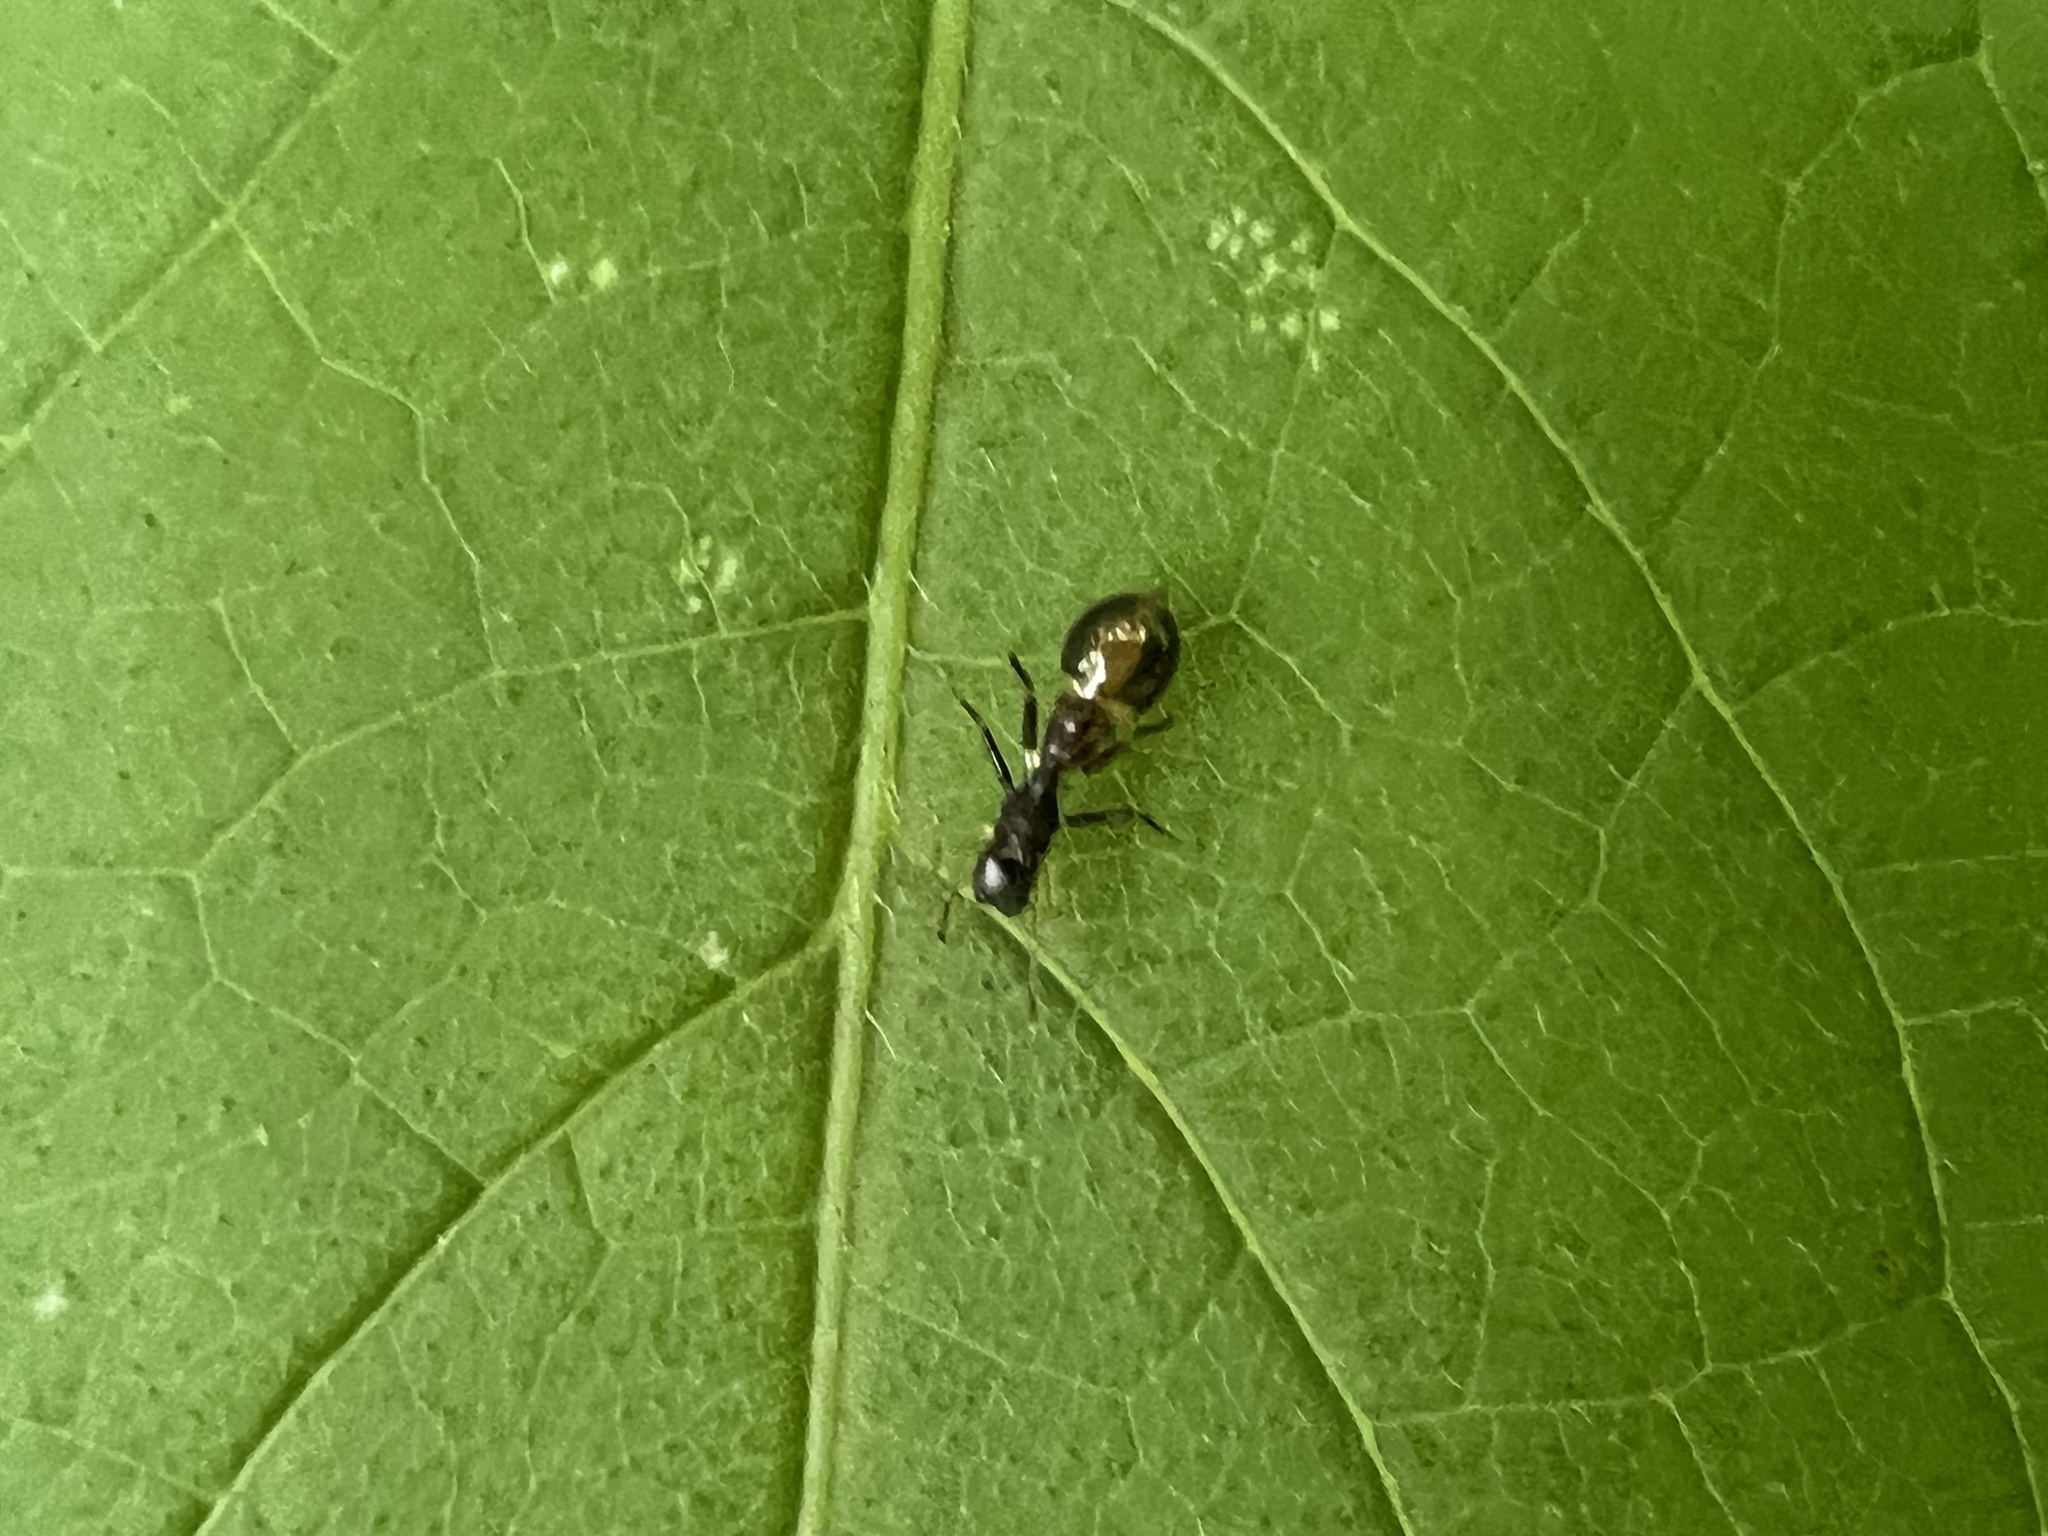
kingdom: Animalia
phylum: Arthropoda
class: Arachnida
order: Araneae
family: Salticidae
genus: Synemosyna
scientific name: Synemosyna formica
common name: Slender ant-mimic jumping spider
